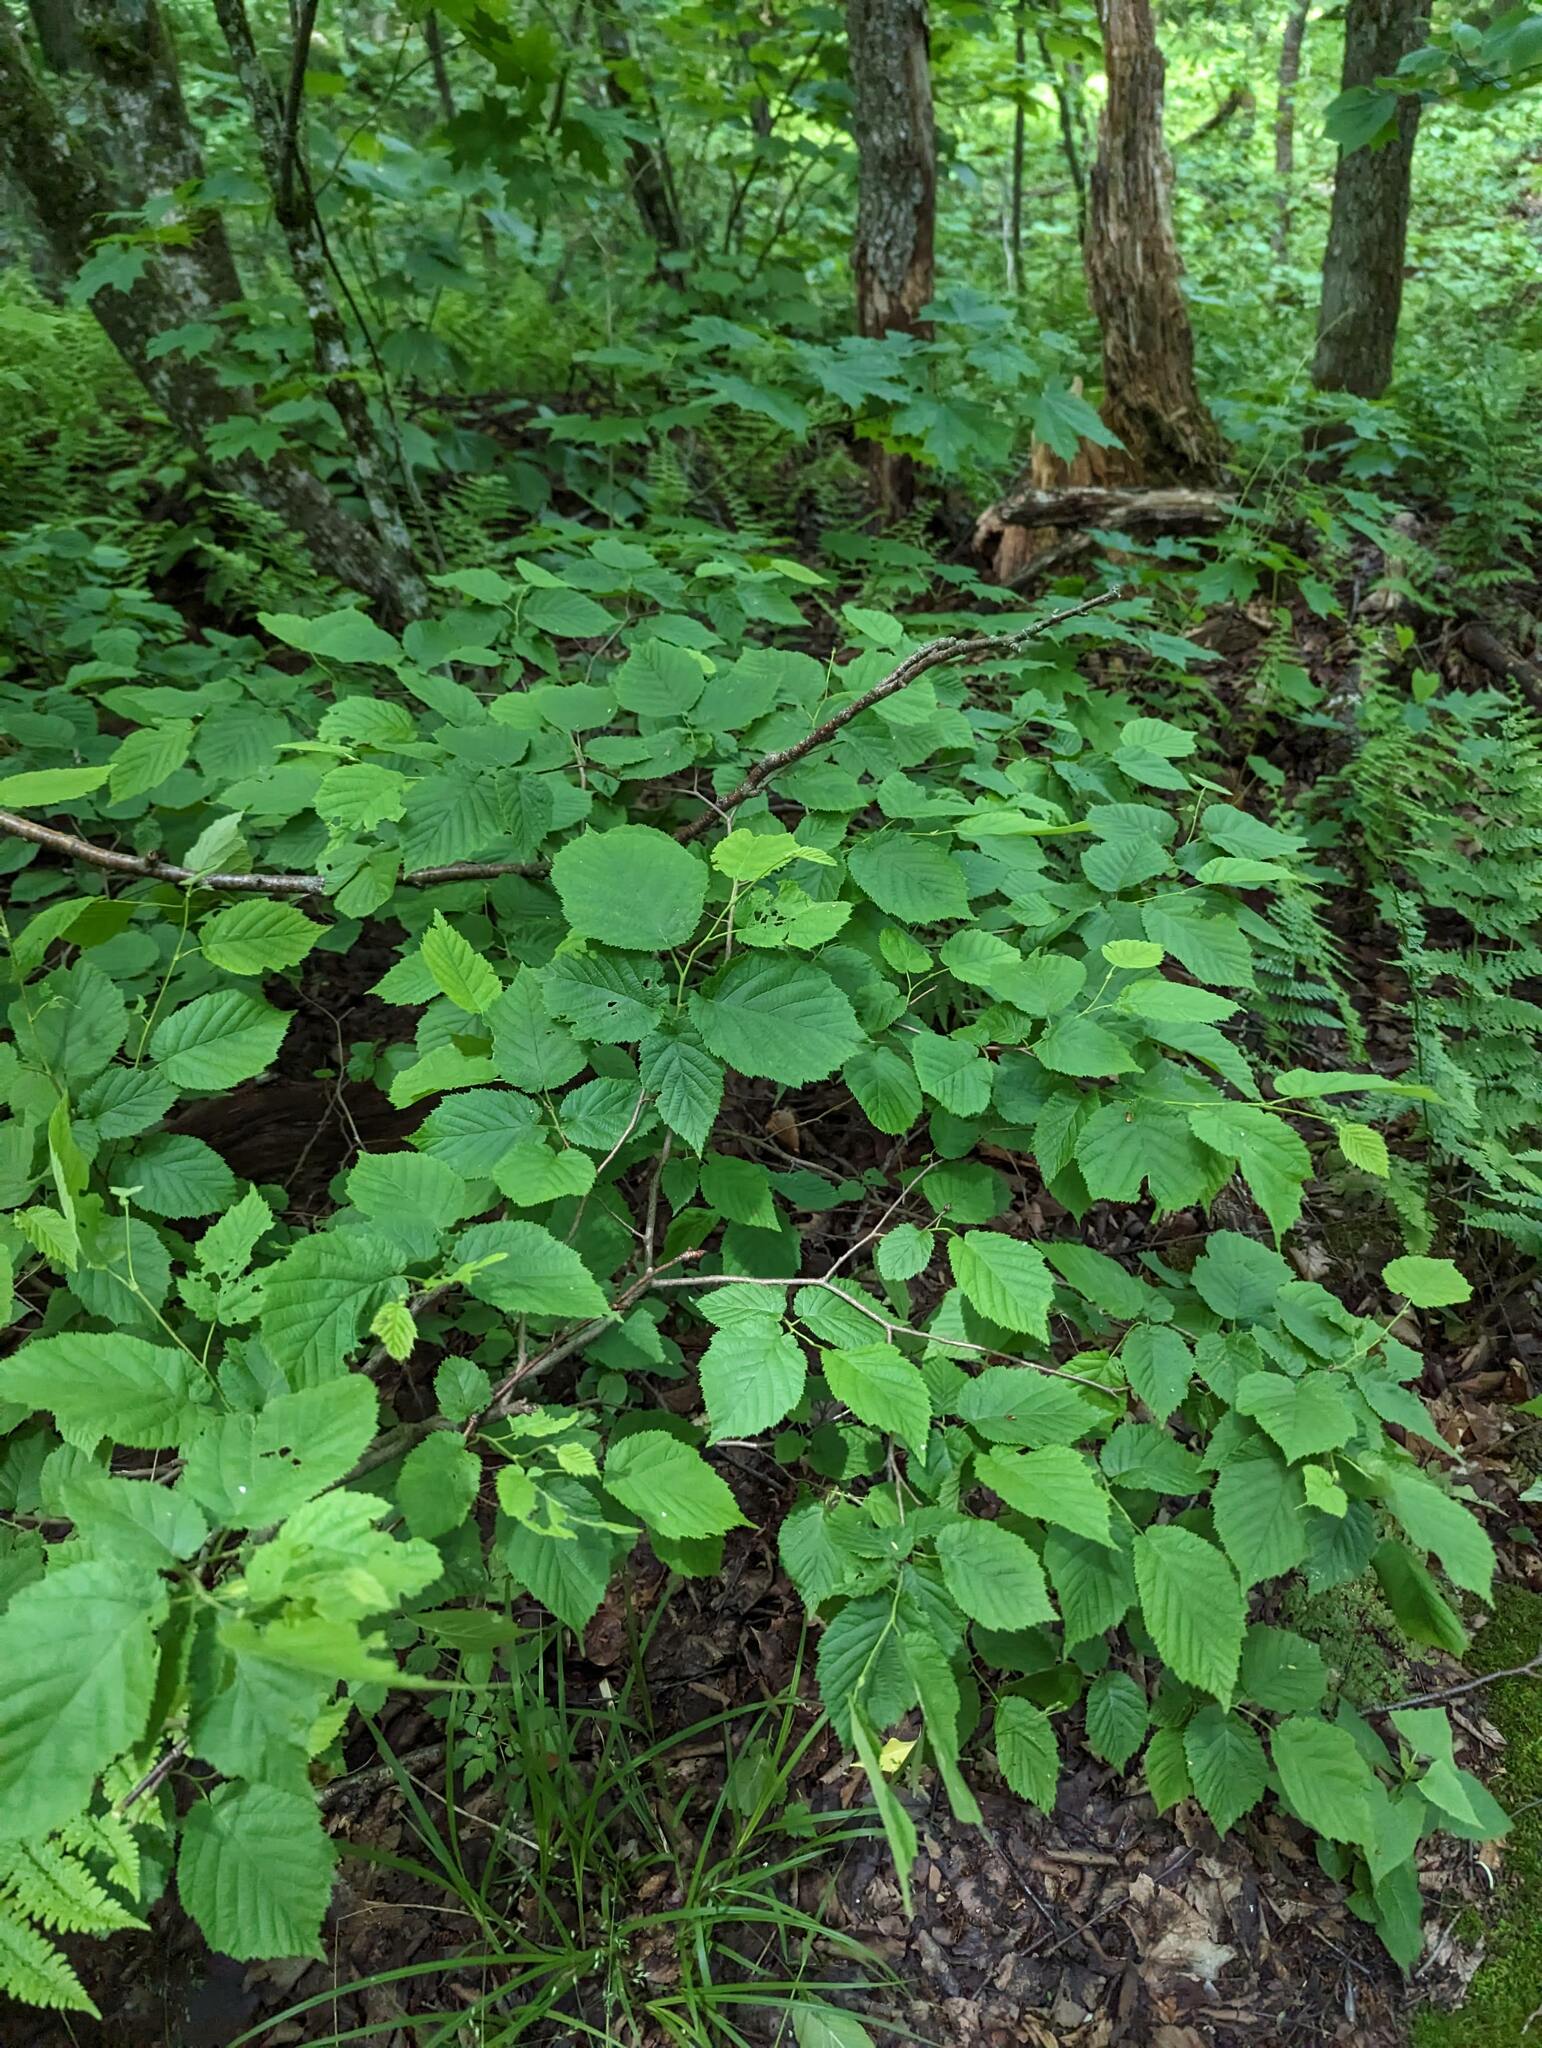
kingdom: Plantae
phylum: Tracheophyta
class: Magnoliopsida
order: Fagales
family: Betulaceae
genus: Corylus
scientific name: Corylus cornuta
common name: Beaked hazel
